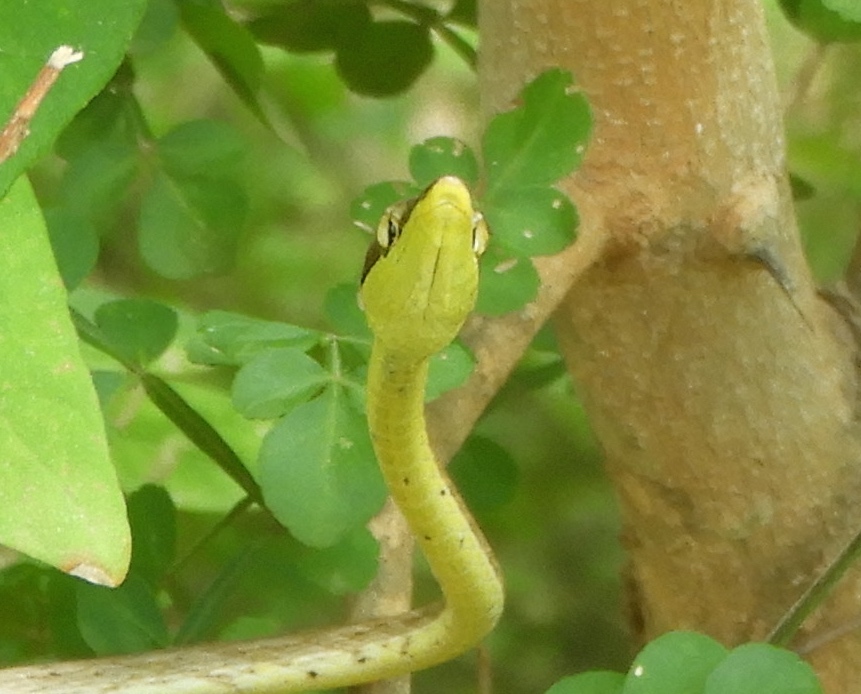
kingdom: Animalia
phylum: Chordata
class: Squamata
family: Colubridae
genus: Oxybelis
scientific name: Oxybelis microphthalmus
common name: Thrornscrub vine snake
